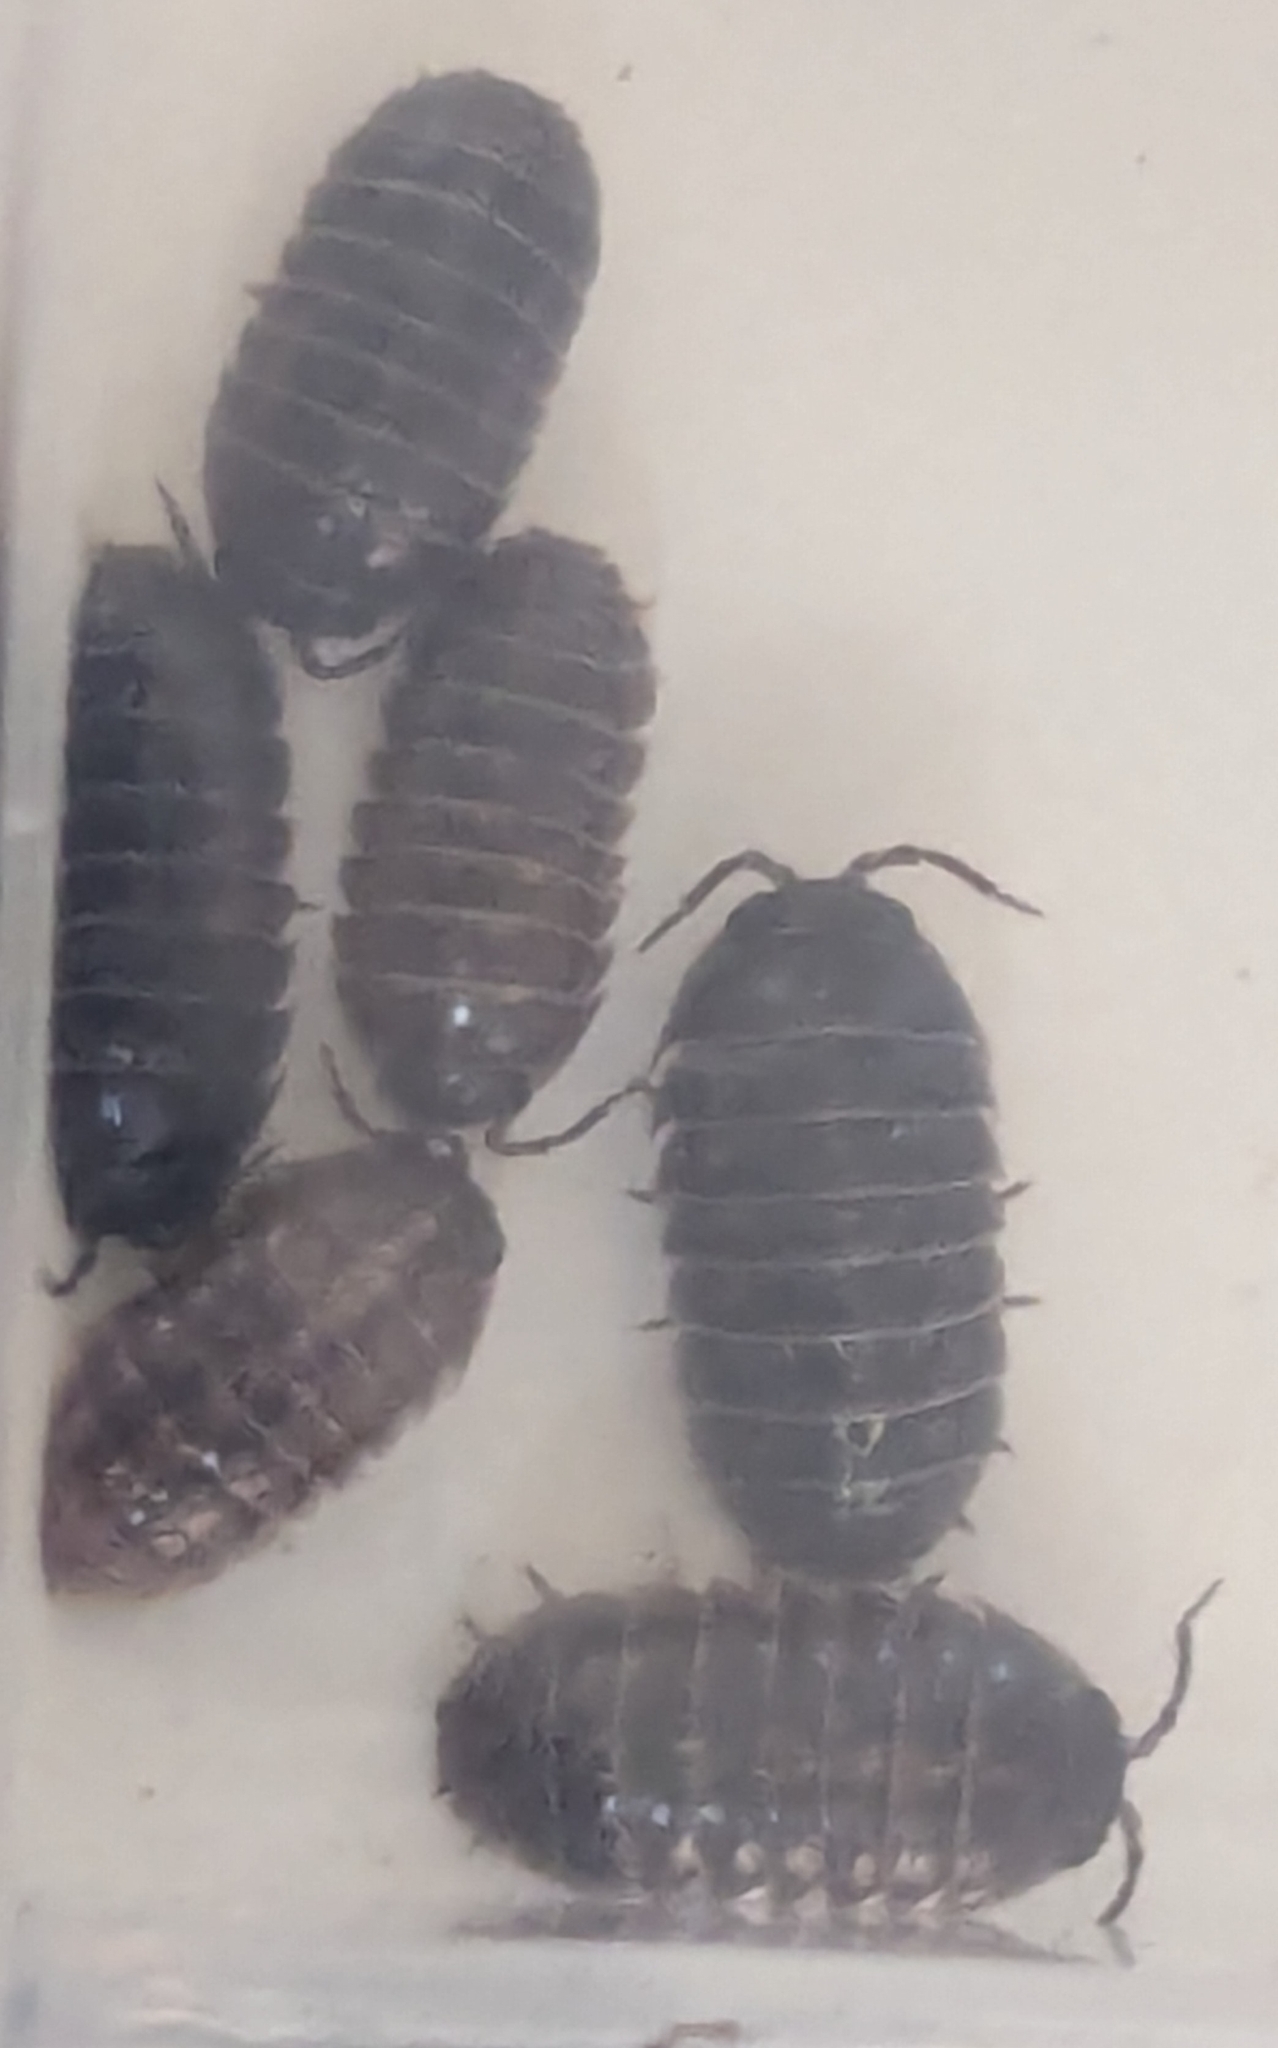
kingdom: Animalia
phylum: Arthropoda
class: Malacostraca
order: Isopoda
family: Armadillidiidae
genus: Armadillidium
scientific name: Armadillidium vulgare
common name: Common pill woodlouse
